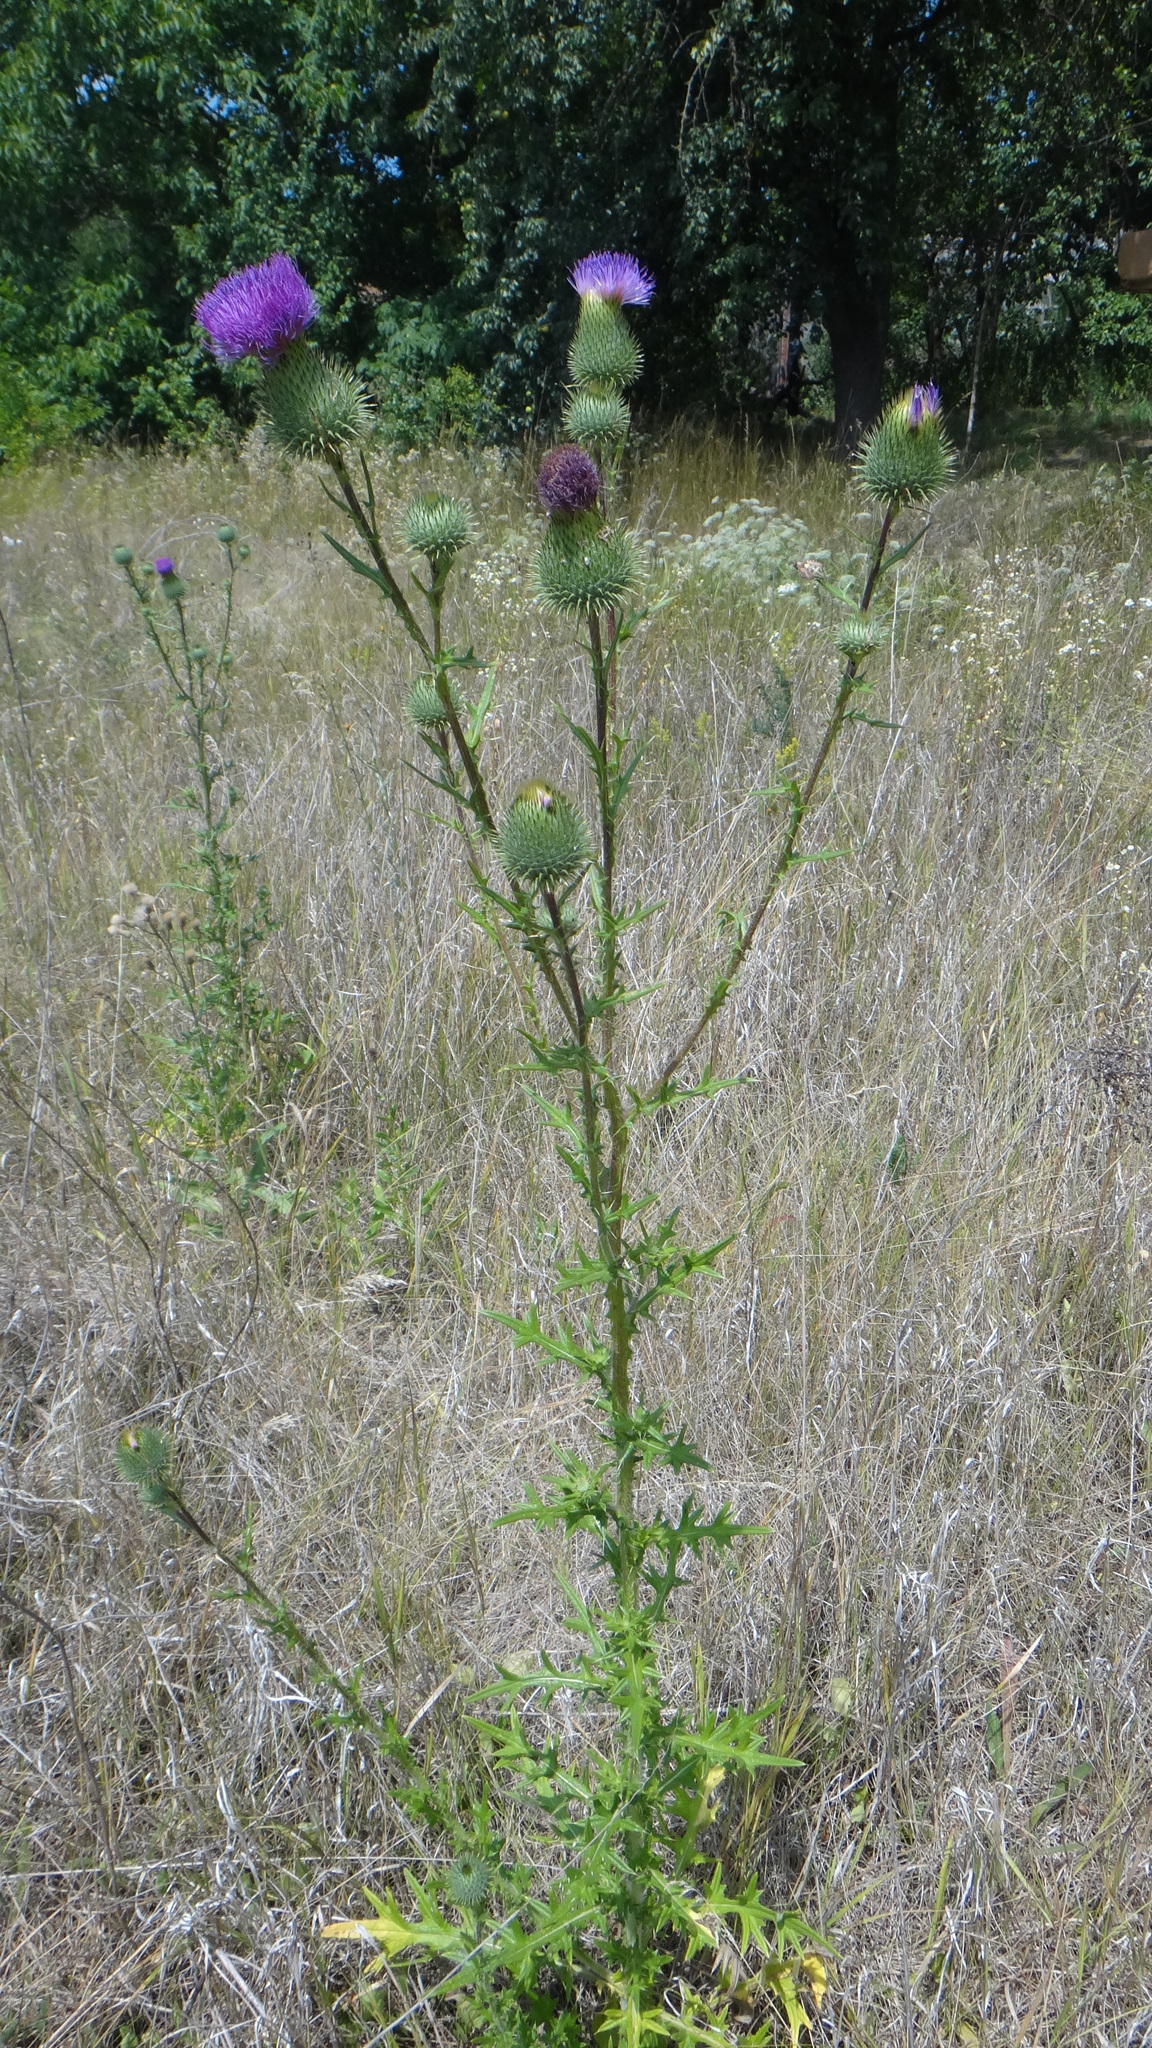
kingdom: Plantae
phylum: Tracheophyta
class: Magnoliopsida
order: Asterales
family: Asteraceae
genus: Cirsium
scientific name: Cirsium vulgare
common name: Bull thistle
